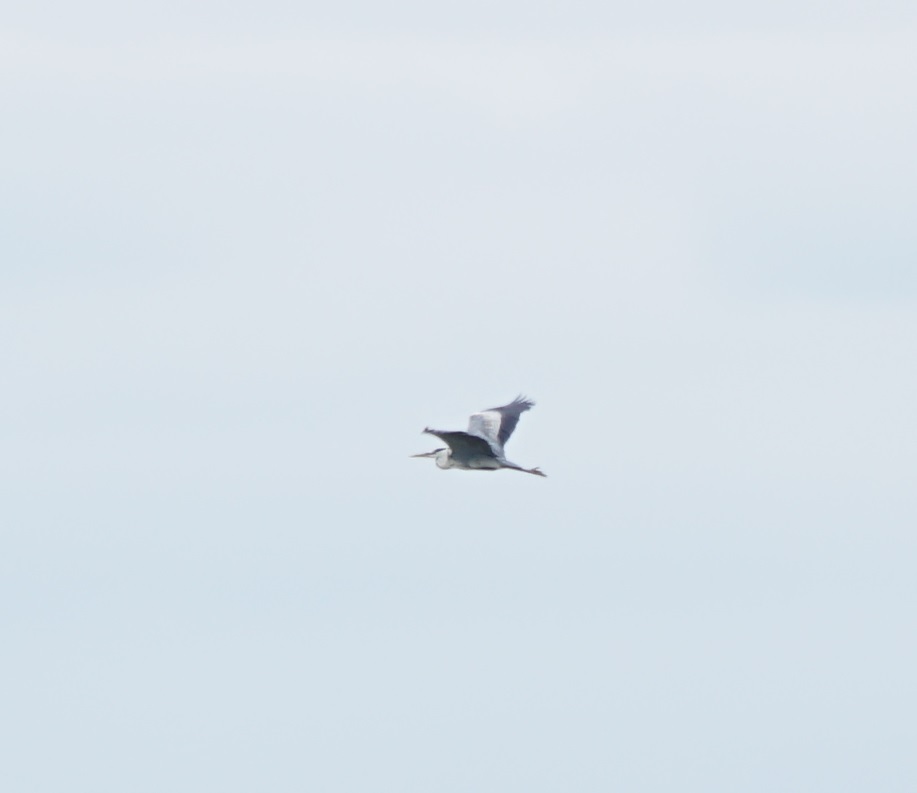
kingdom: Animalia
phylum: Chordata
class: Aves
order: Pelecaniformes
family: Ardeidae
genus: Ardea
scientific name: Ardea cinerea
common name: Grey heron
